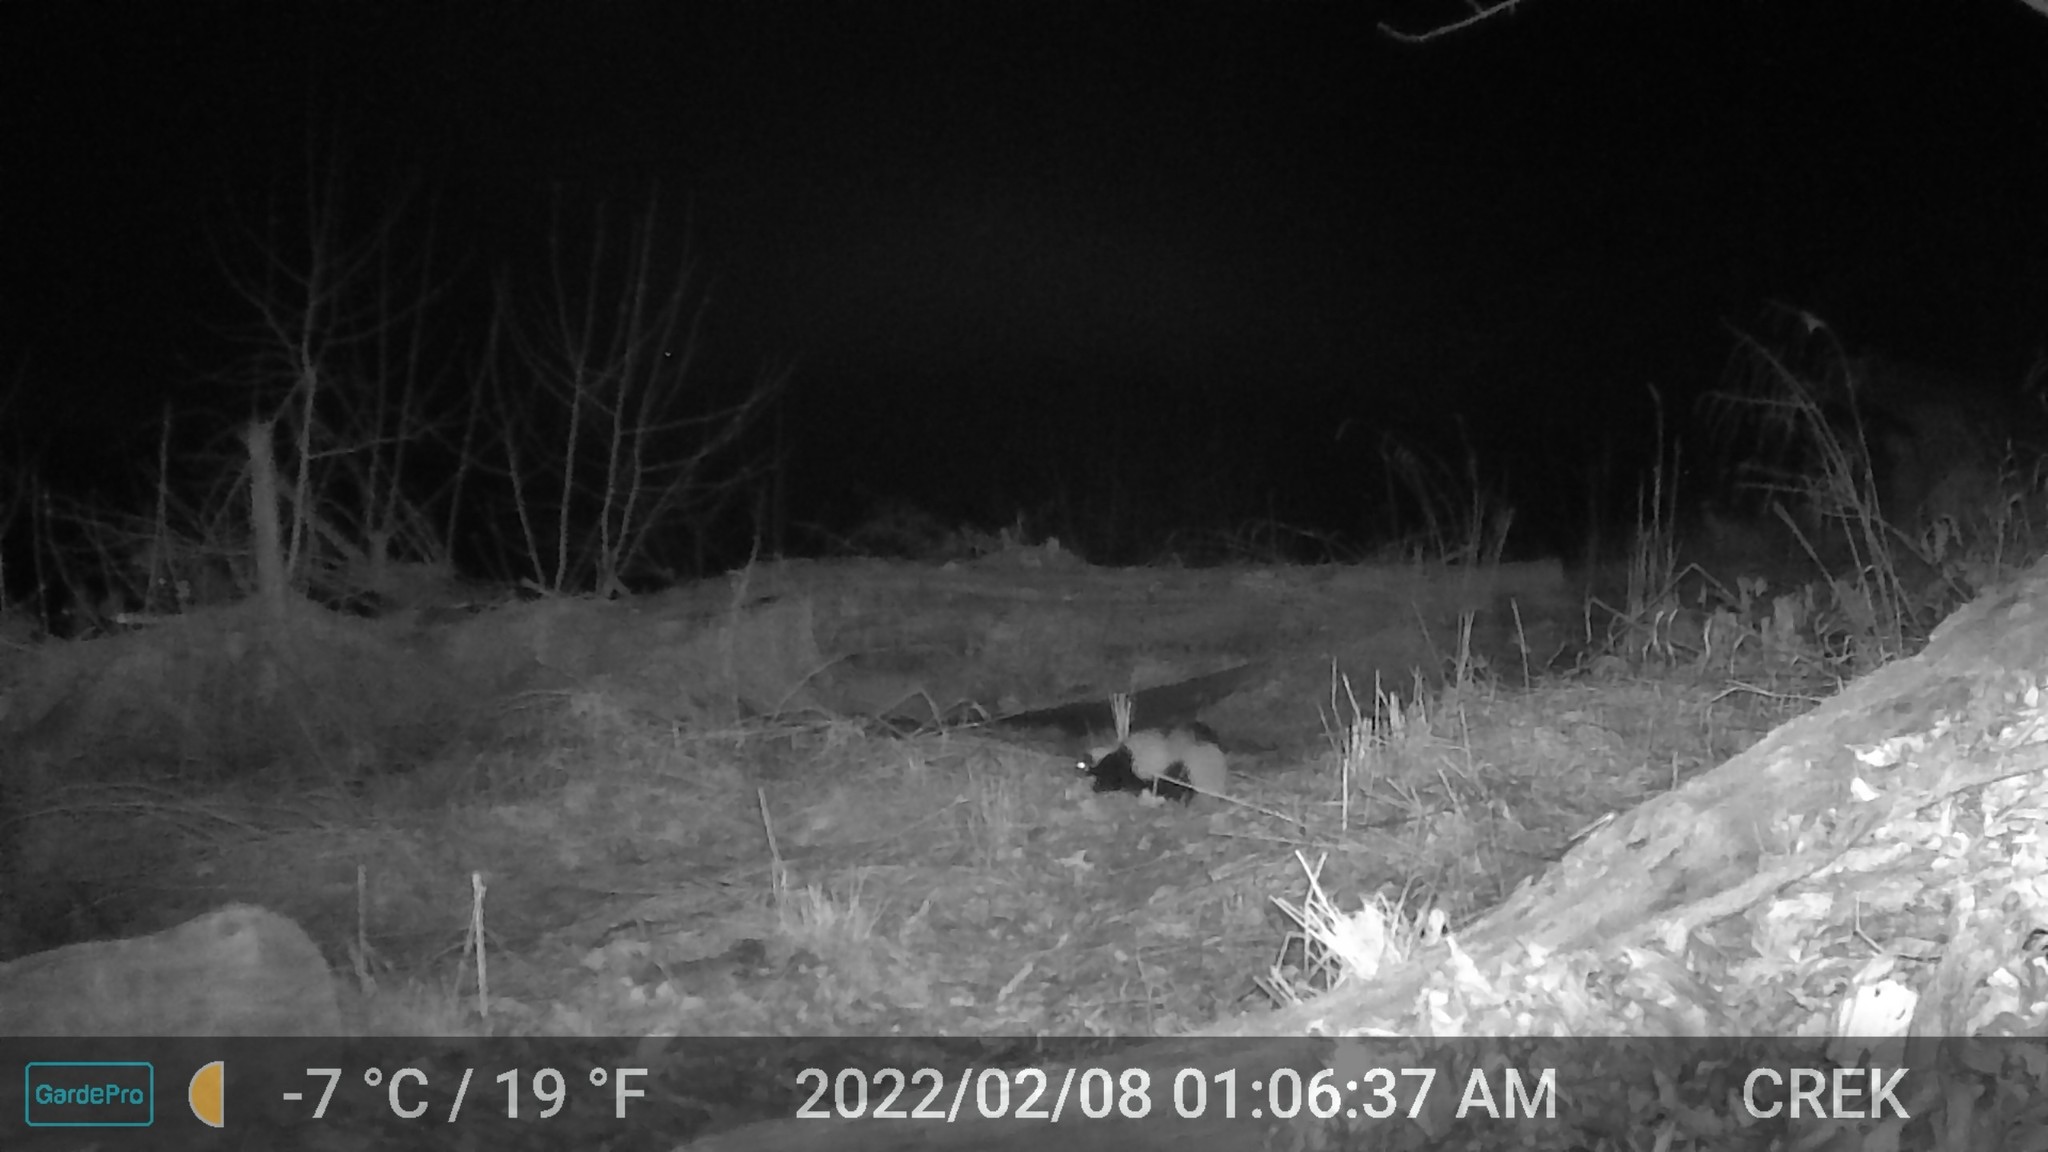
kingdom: Animalia
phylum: Chordata
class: Mammalia
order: Carnivora
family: Mephitidae
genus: Mephitis
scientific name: Mephitis mephitis
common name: Striped skunk
